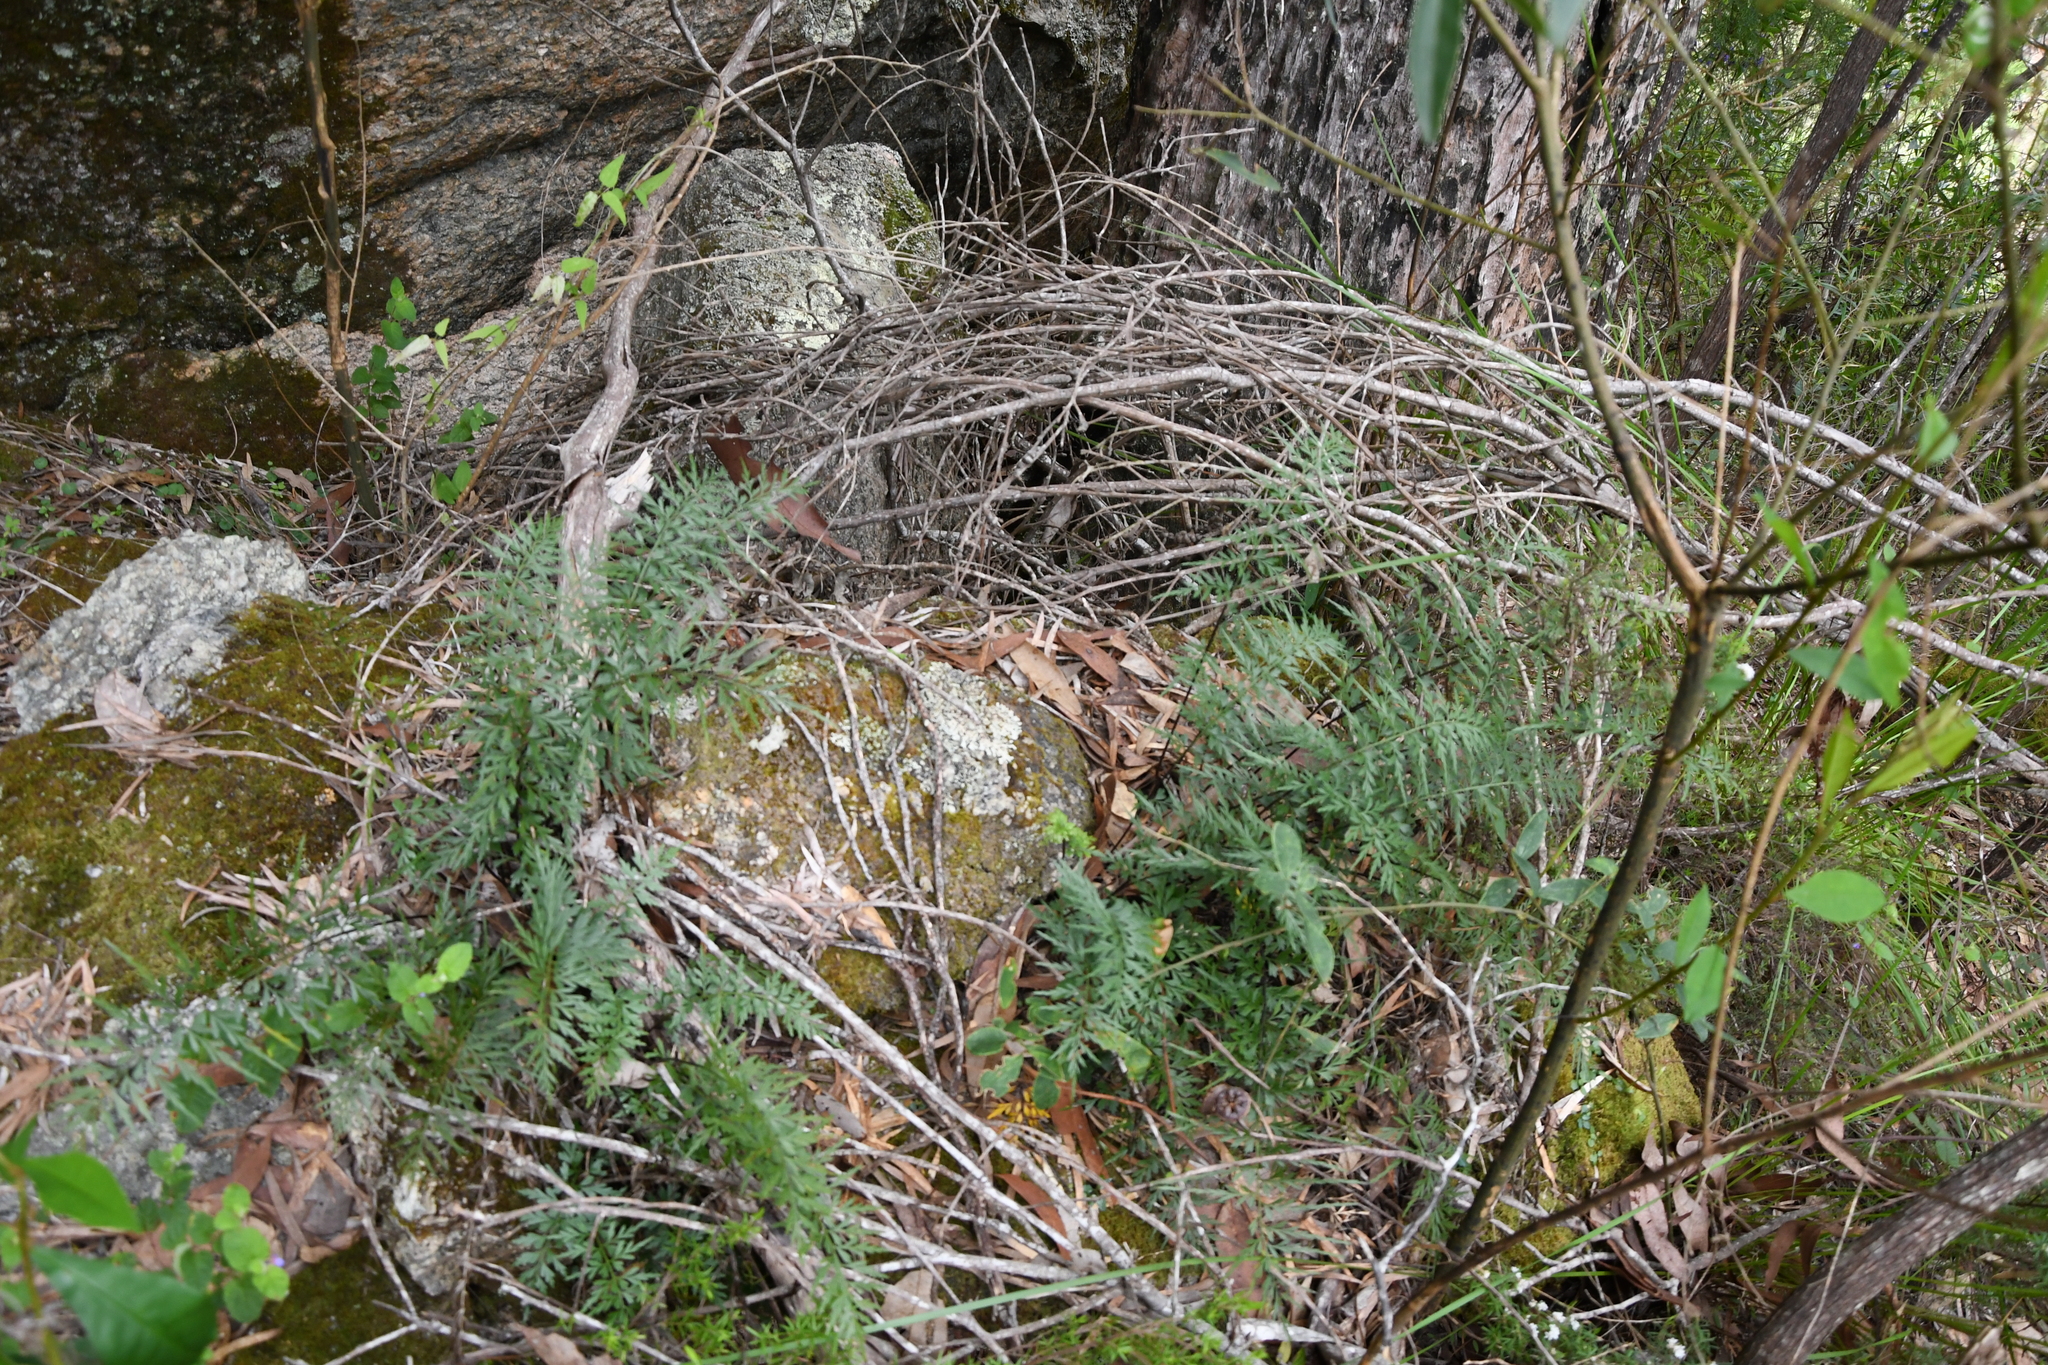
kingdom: Plantae
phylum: Tracheophyta
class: Polypodiopsida
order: Polypodiales
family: Aspleniaceae
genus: Asplenium
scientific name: Asplenium aethiopicum
